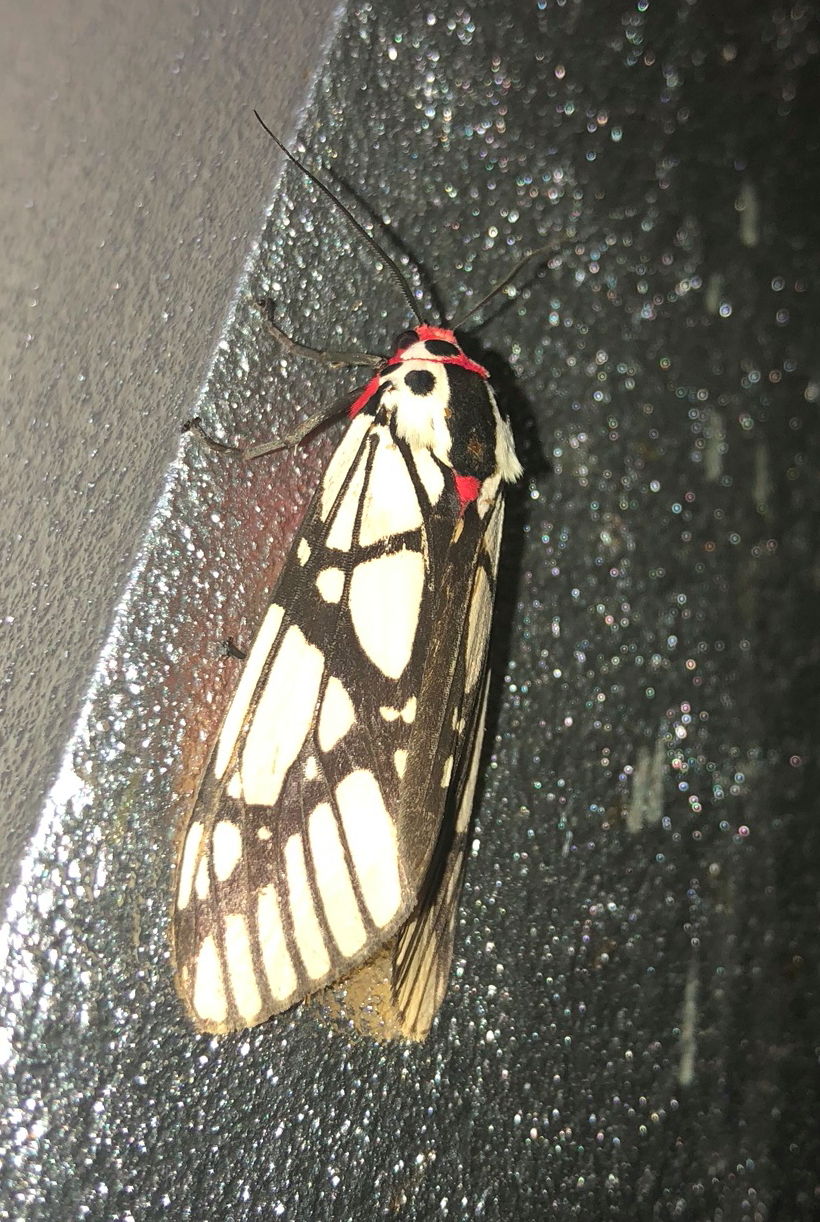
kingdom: Animalia
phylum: Arthropoda
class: Insecta
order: Lepidoptera
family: Erebidae
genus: Areas
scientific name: Areas galactina
